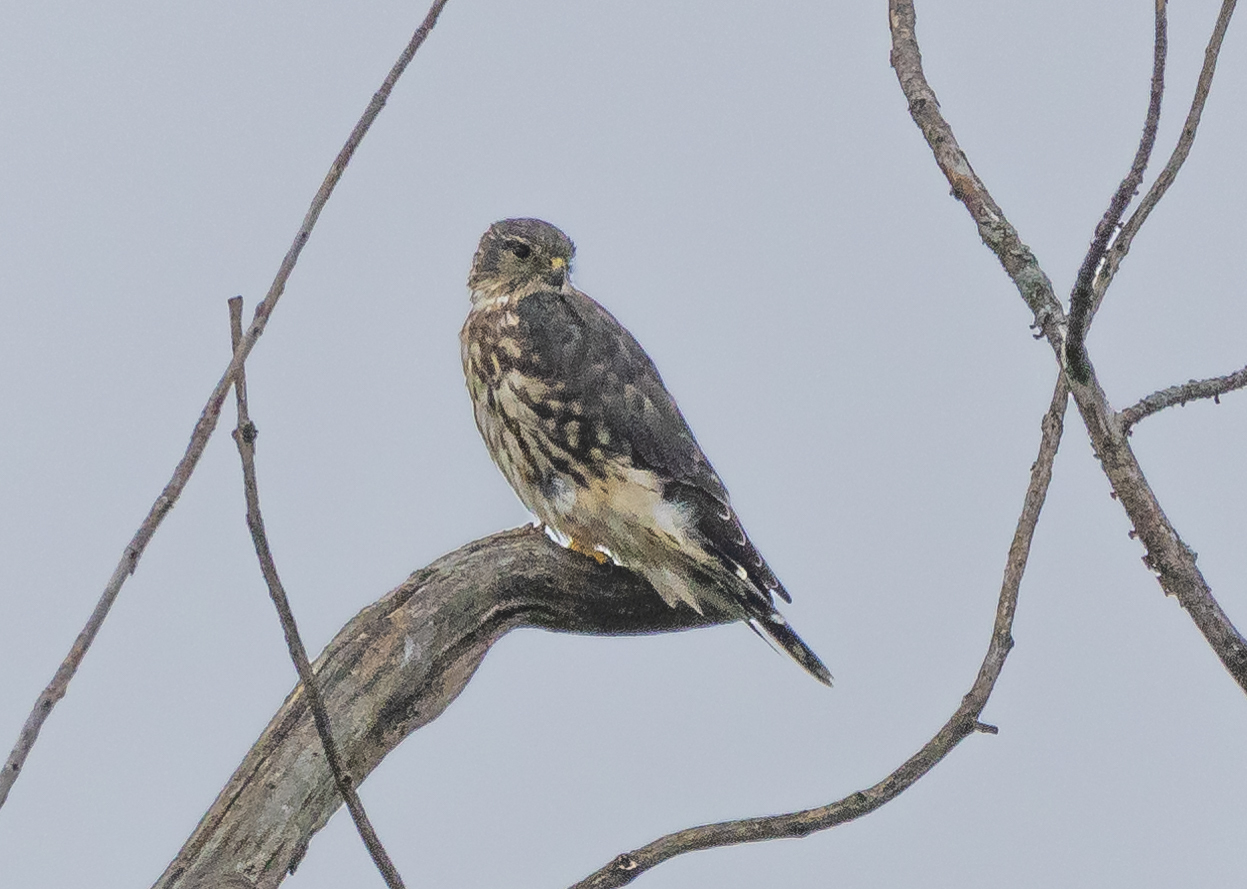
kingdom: Animalia
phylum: Chordata
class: Aves
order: Falconiformes
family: Falconidae
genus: Falco
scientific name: Falco columbarius
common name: Merlin
